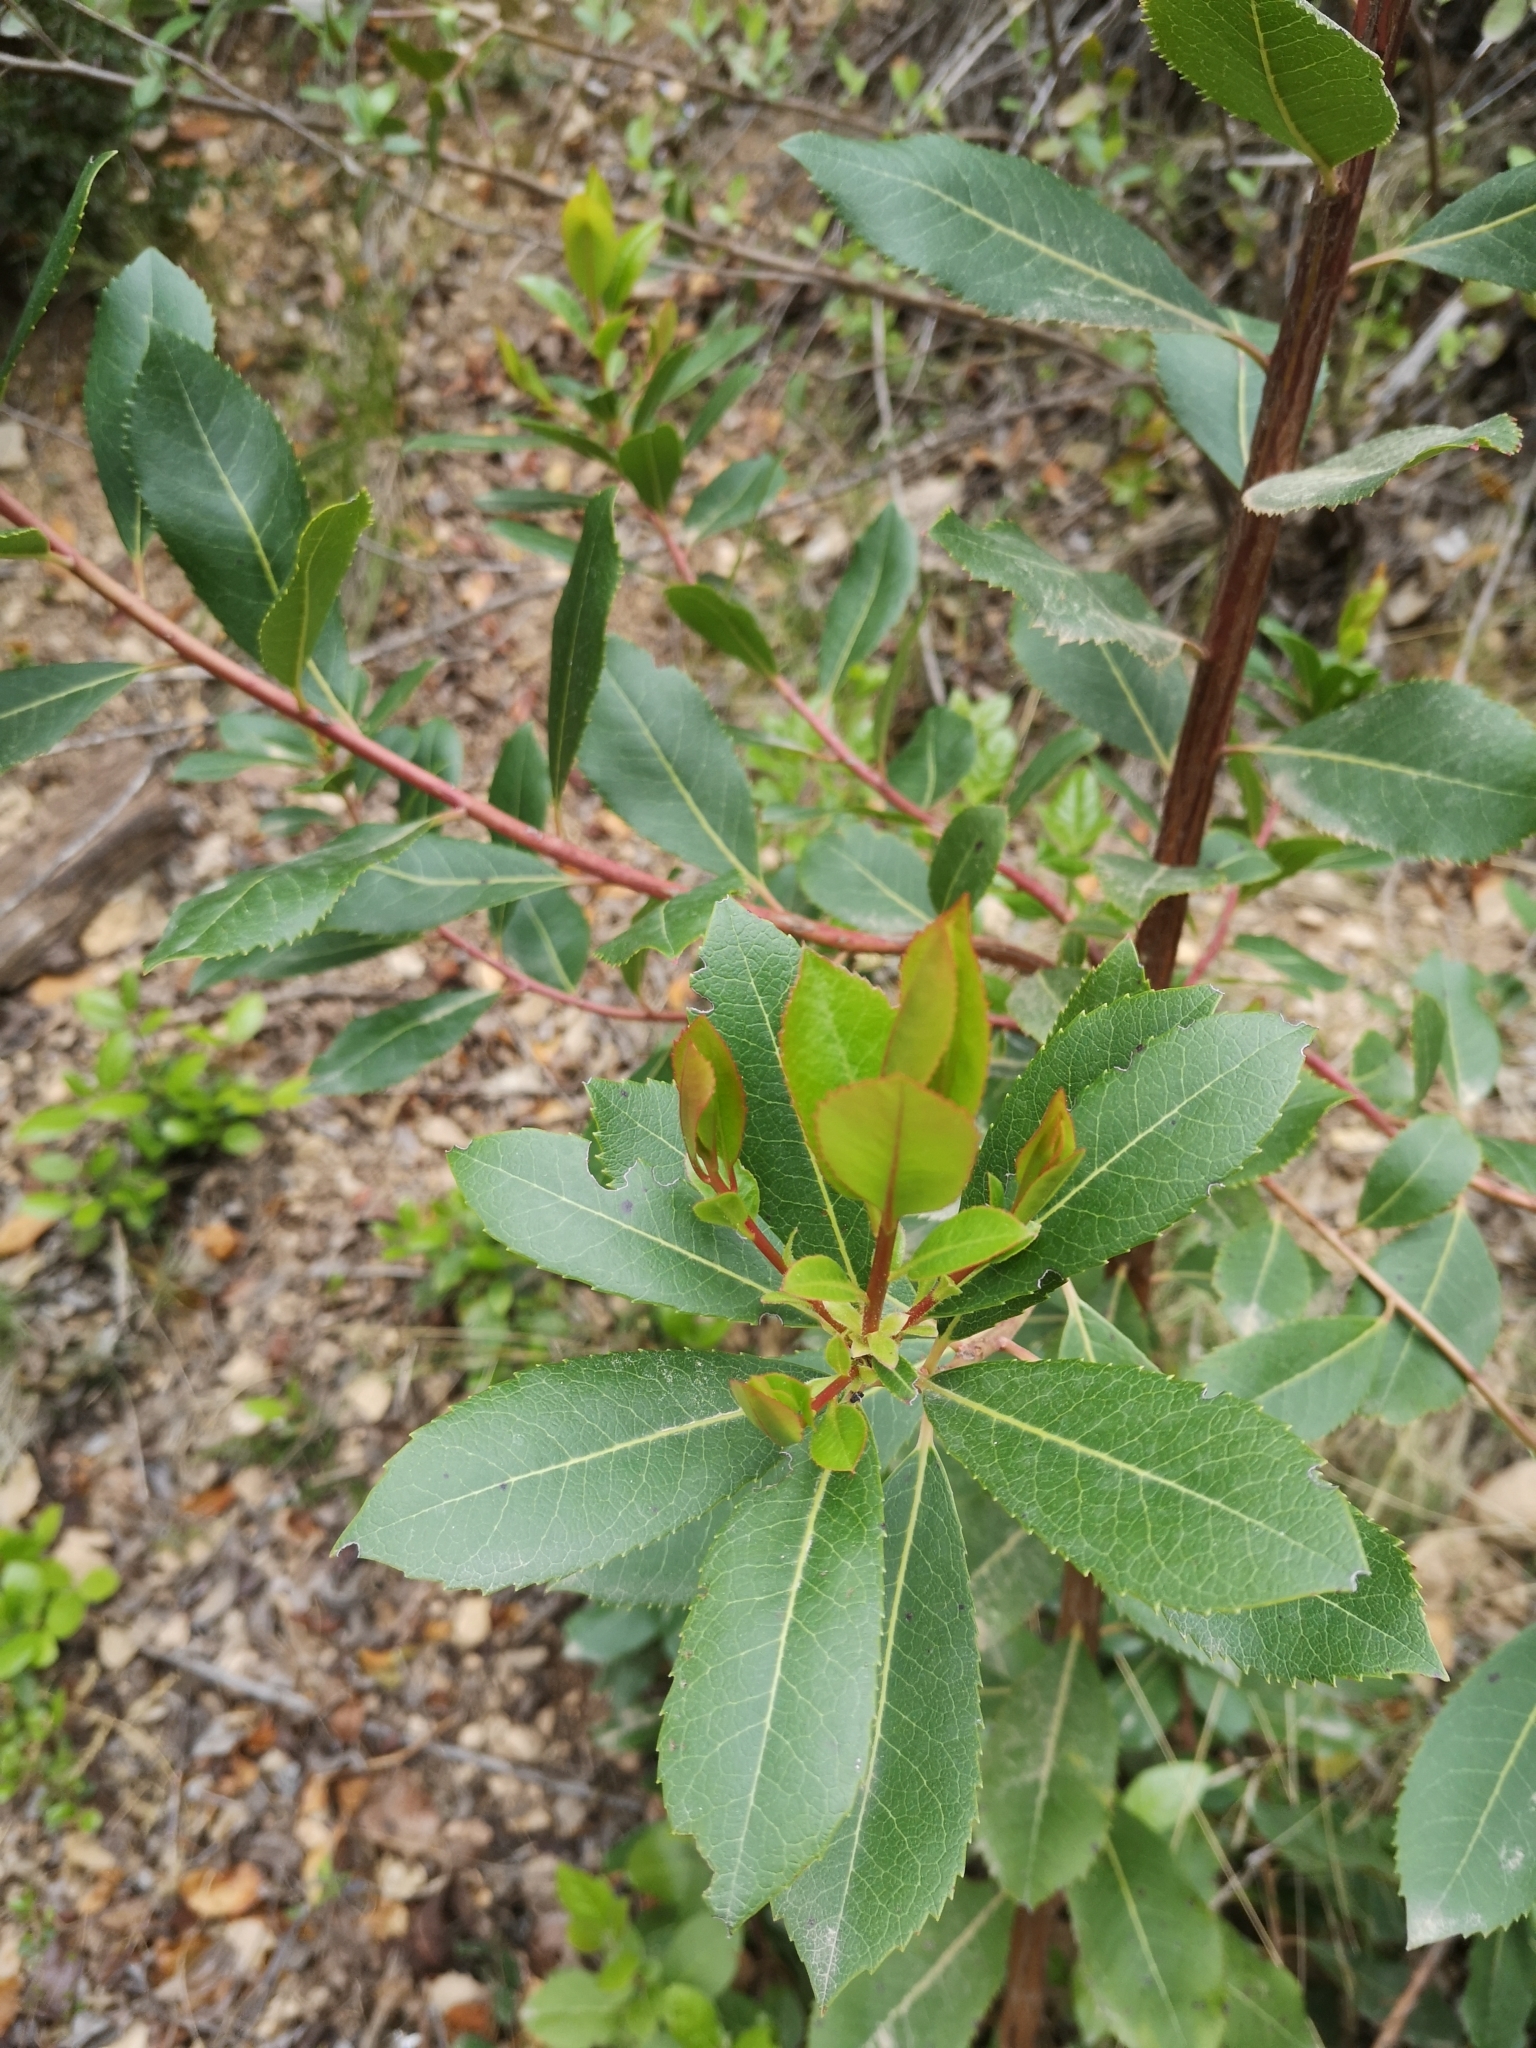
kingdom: Plantae
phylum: Tracheophyta
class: Magnoliopsida
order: Ericales
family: Ericaceae
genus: Arbutus
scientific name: Arbutus unedo
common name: Strawberry-tree
